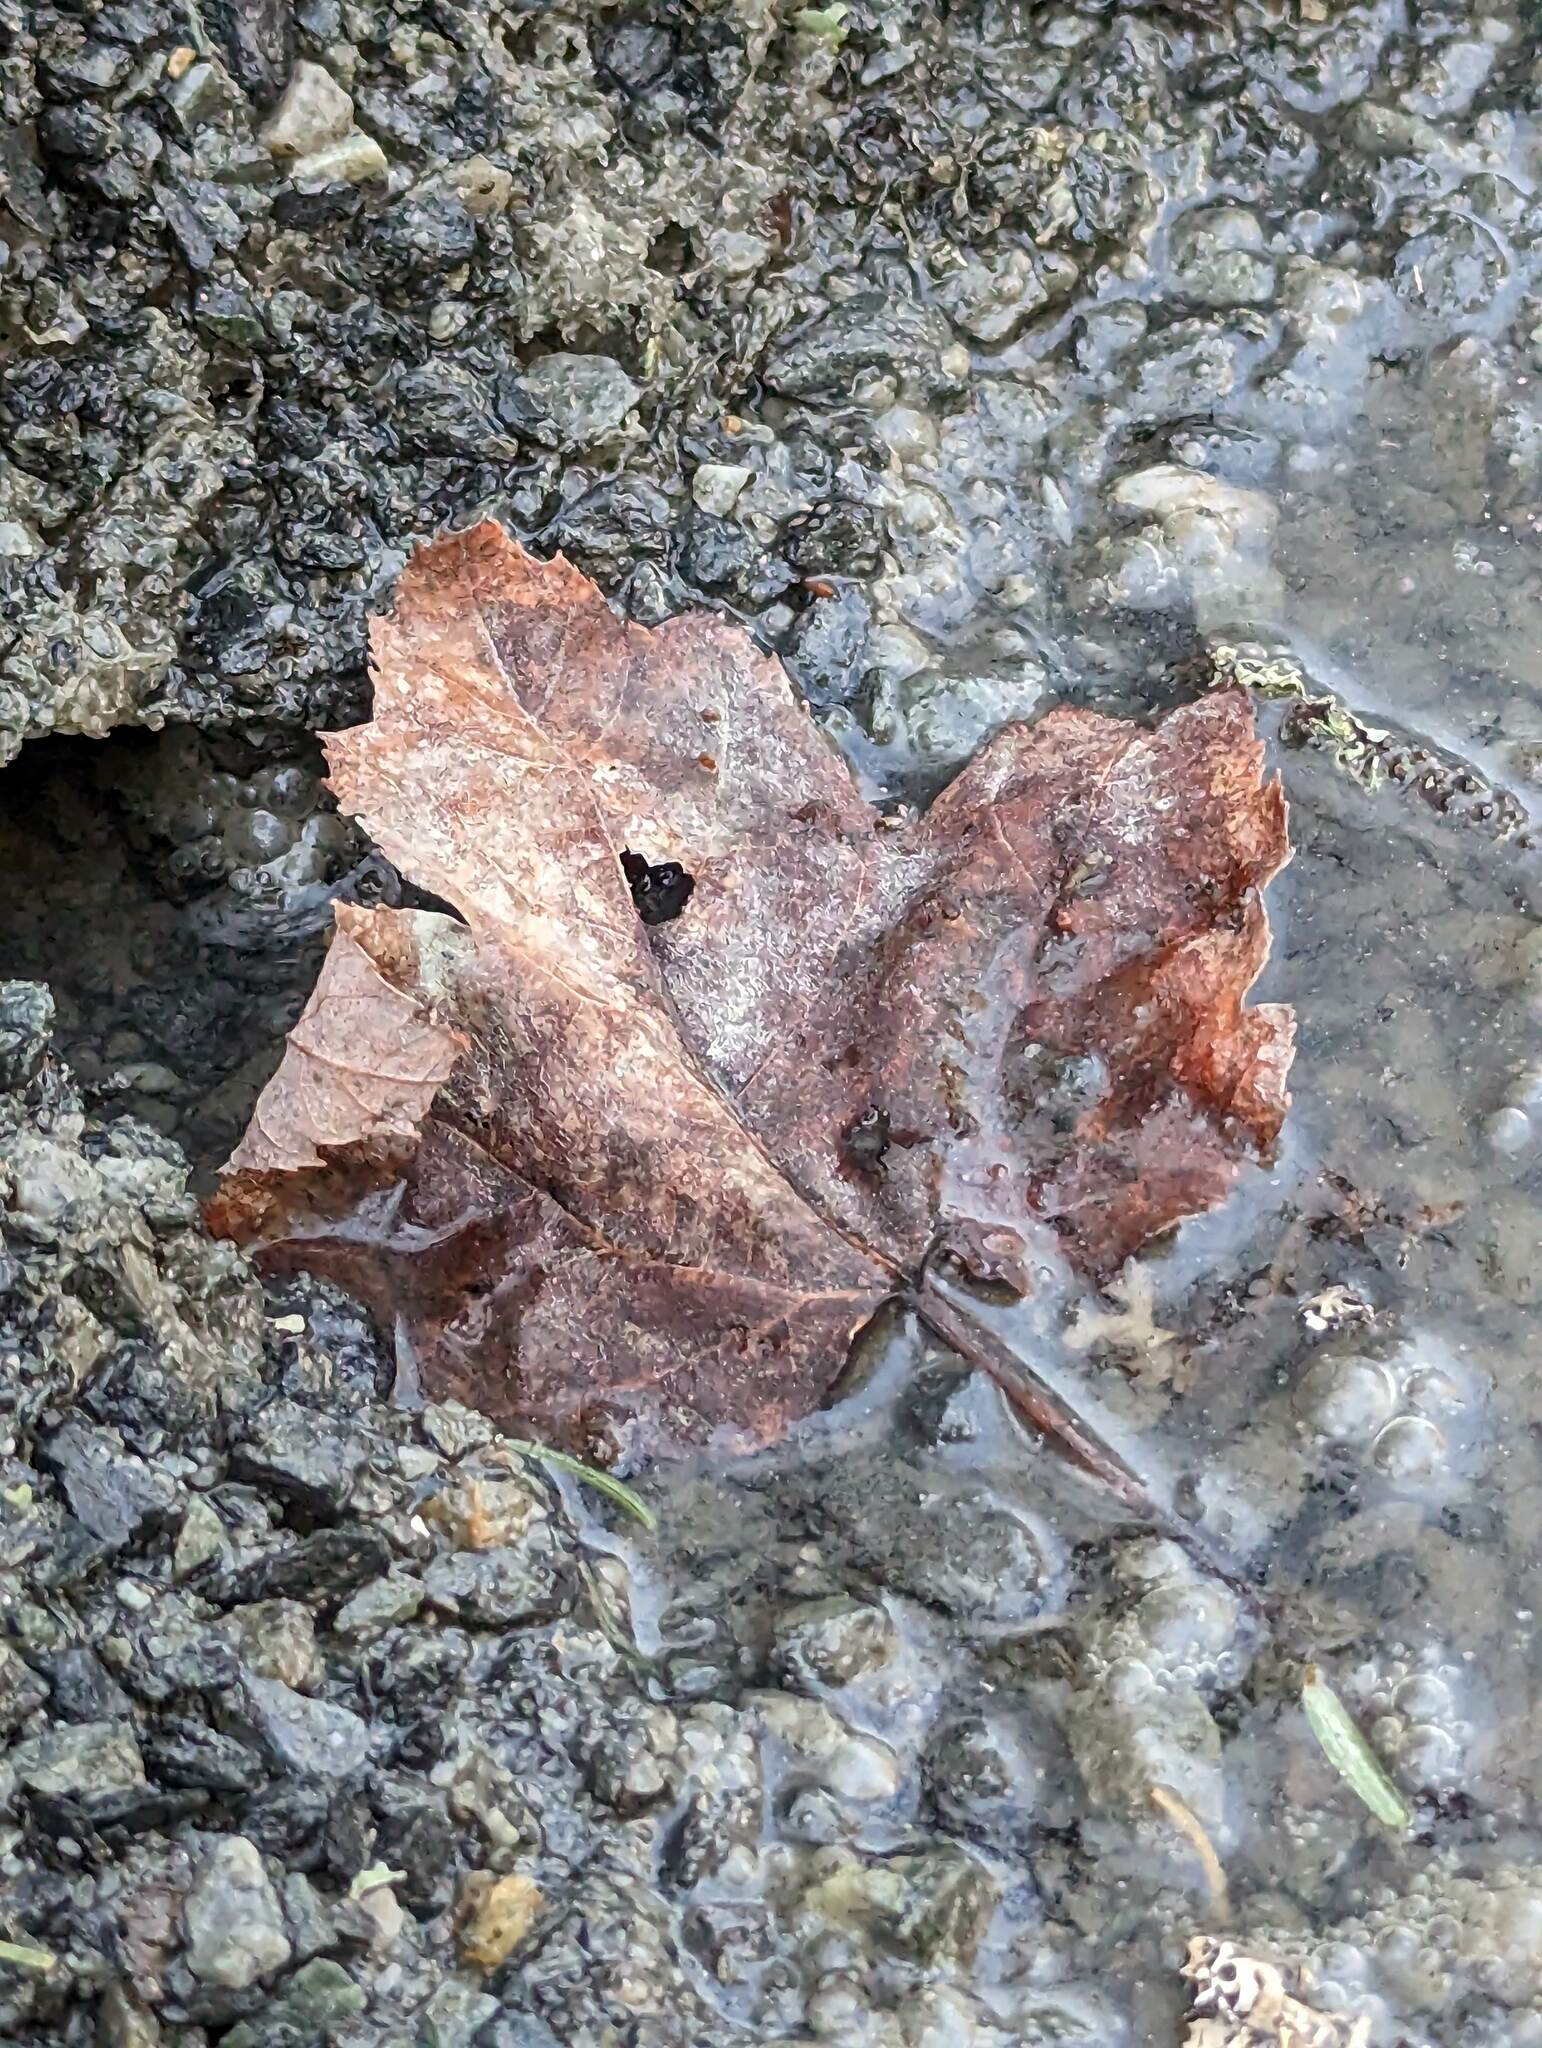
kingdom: Plantae
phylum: Tracheophyta
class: Magnoliopsida
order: Sapindales
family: Sapindaceae
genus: Acer
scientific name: Acer rubrum
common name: Red maple
